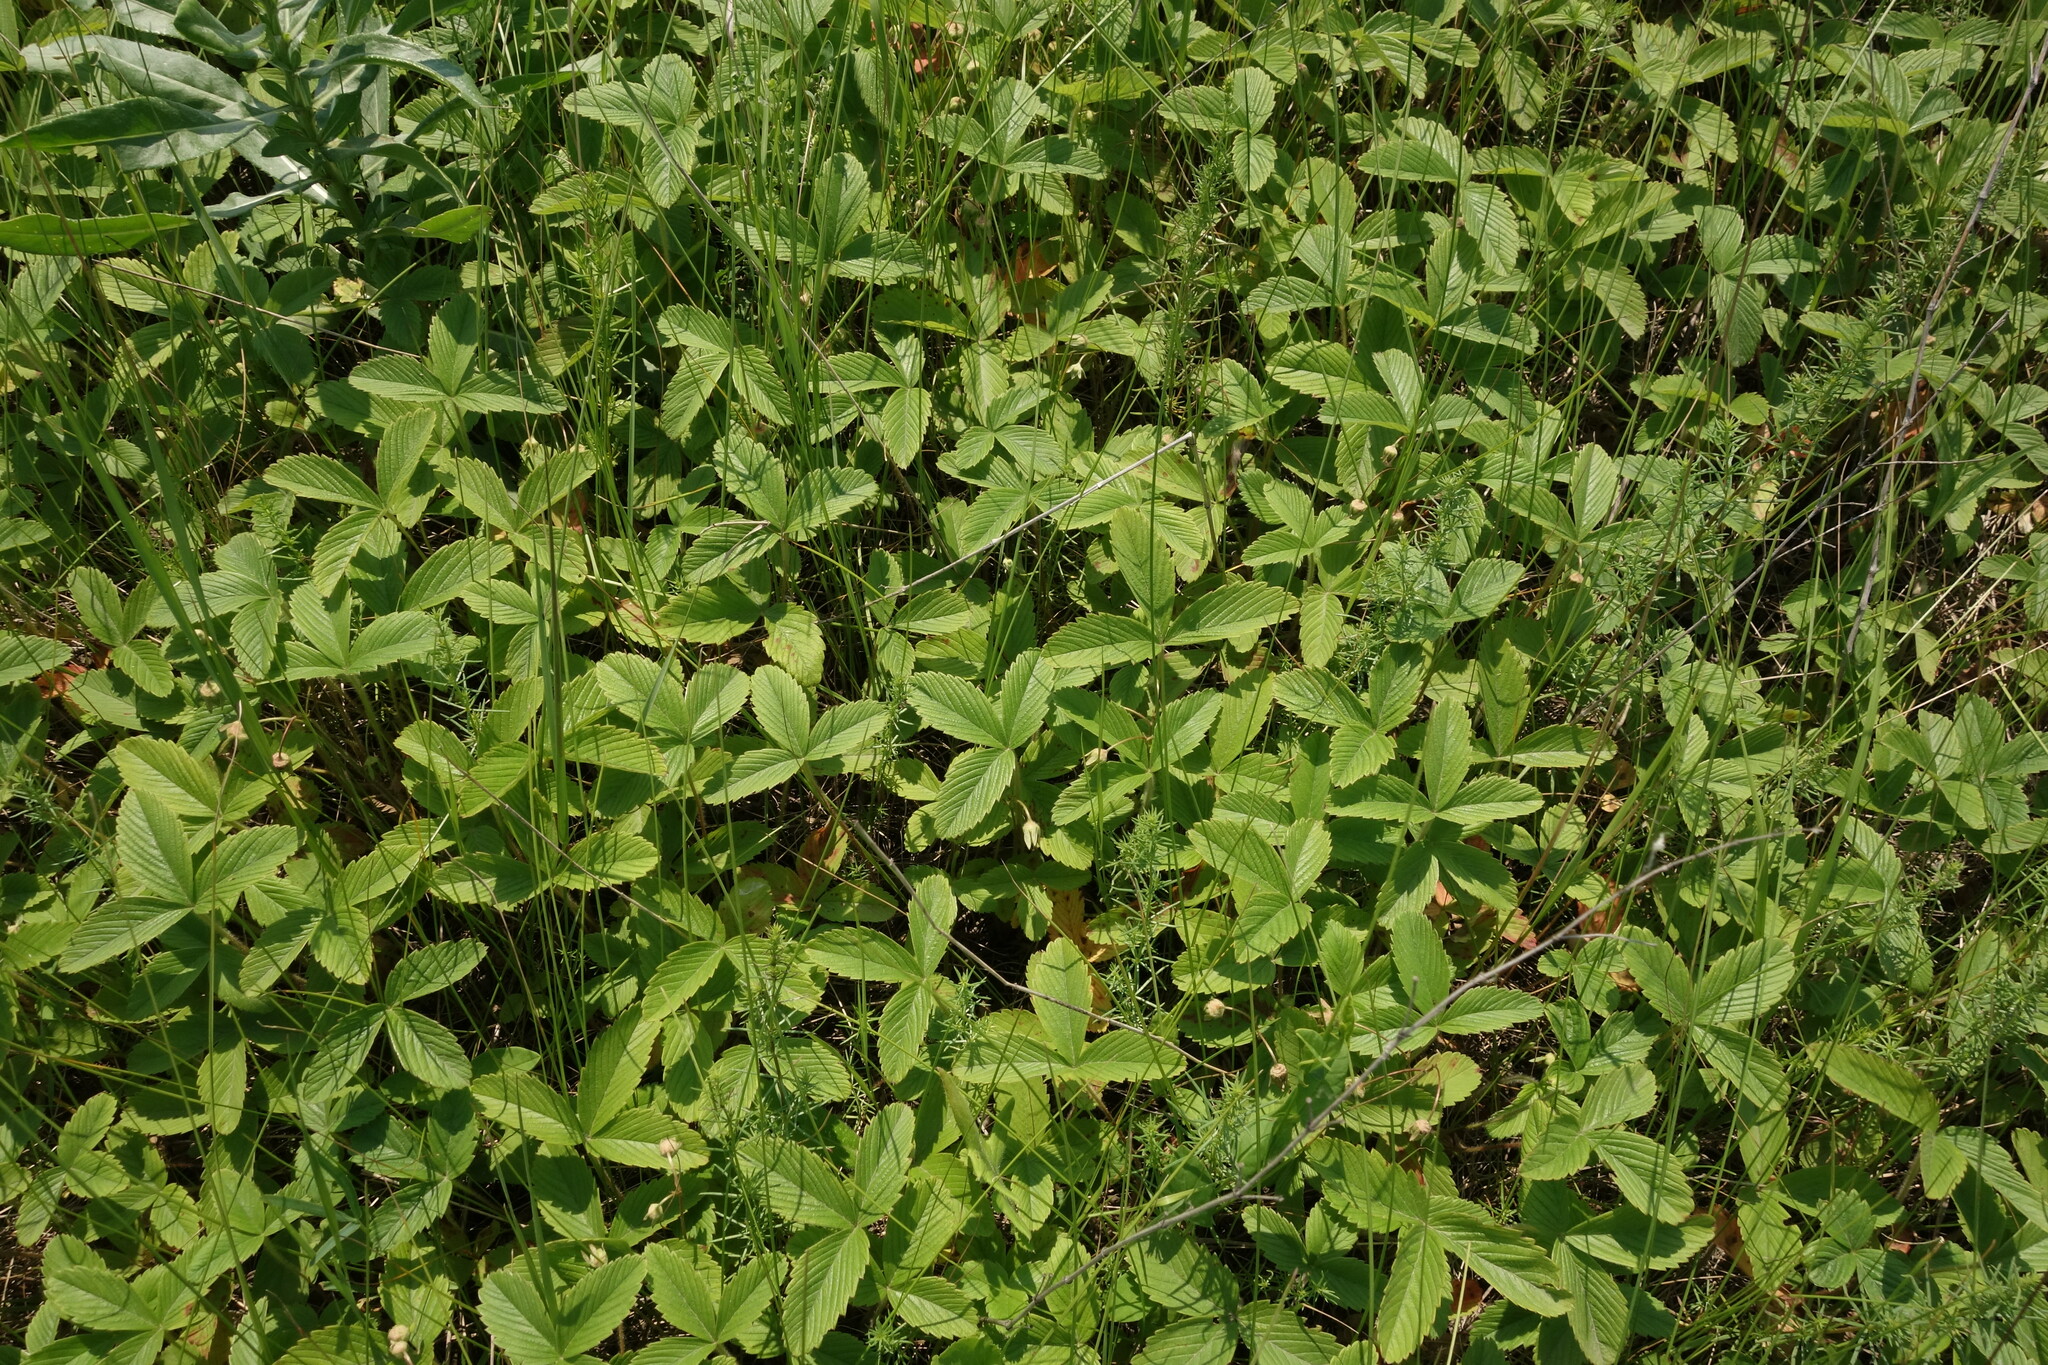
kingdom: Plantae
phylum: Tracheophyta
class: Magnoliopsida
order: Rosales
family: Rosaceae
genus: Fragaria
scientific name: Fragaria viridis
